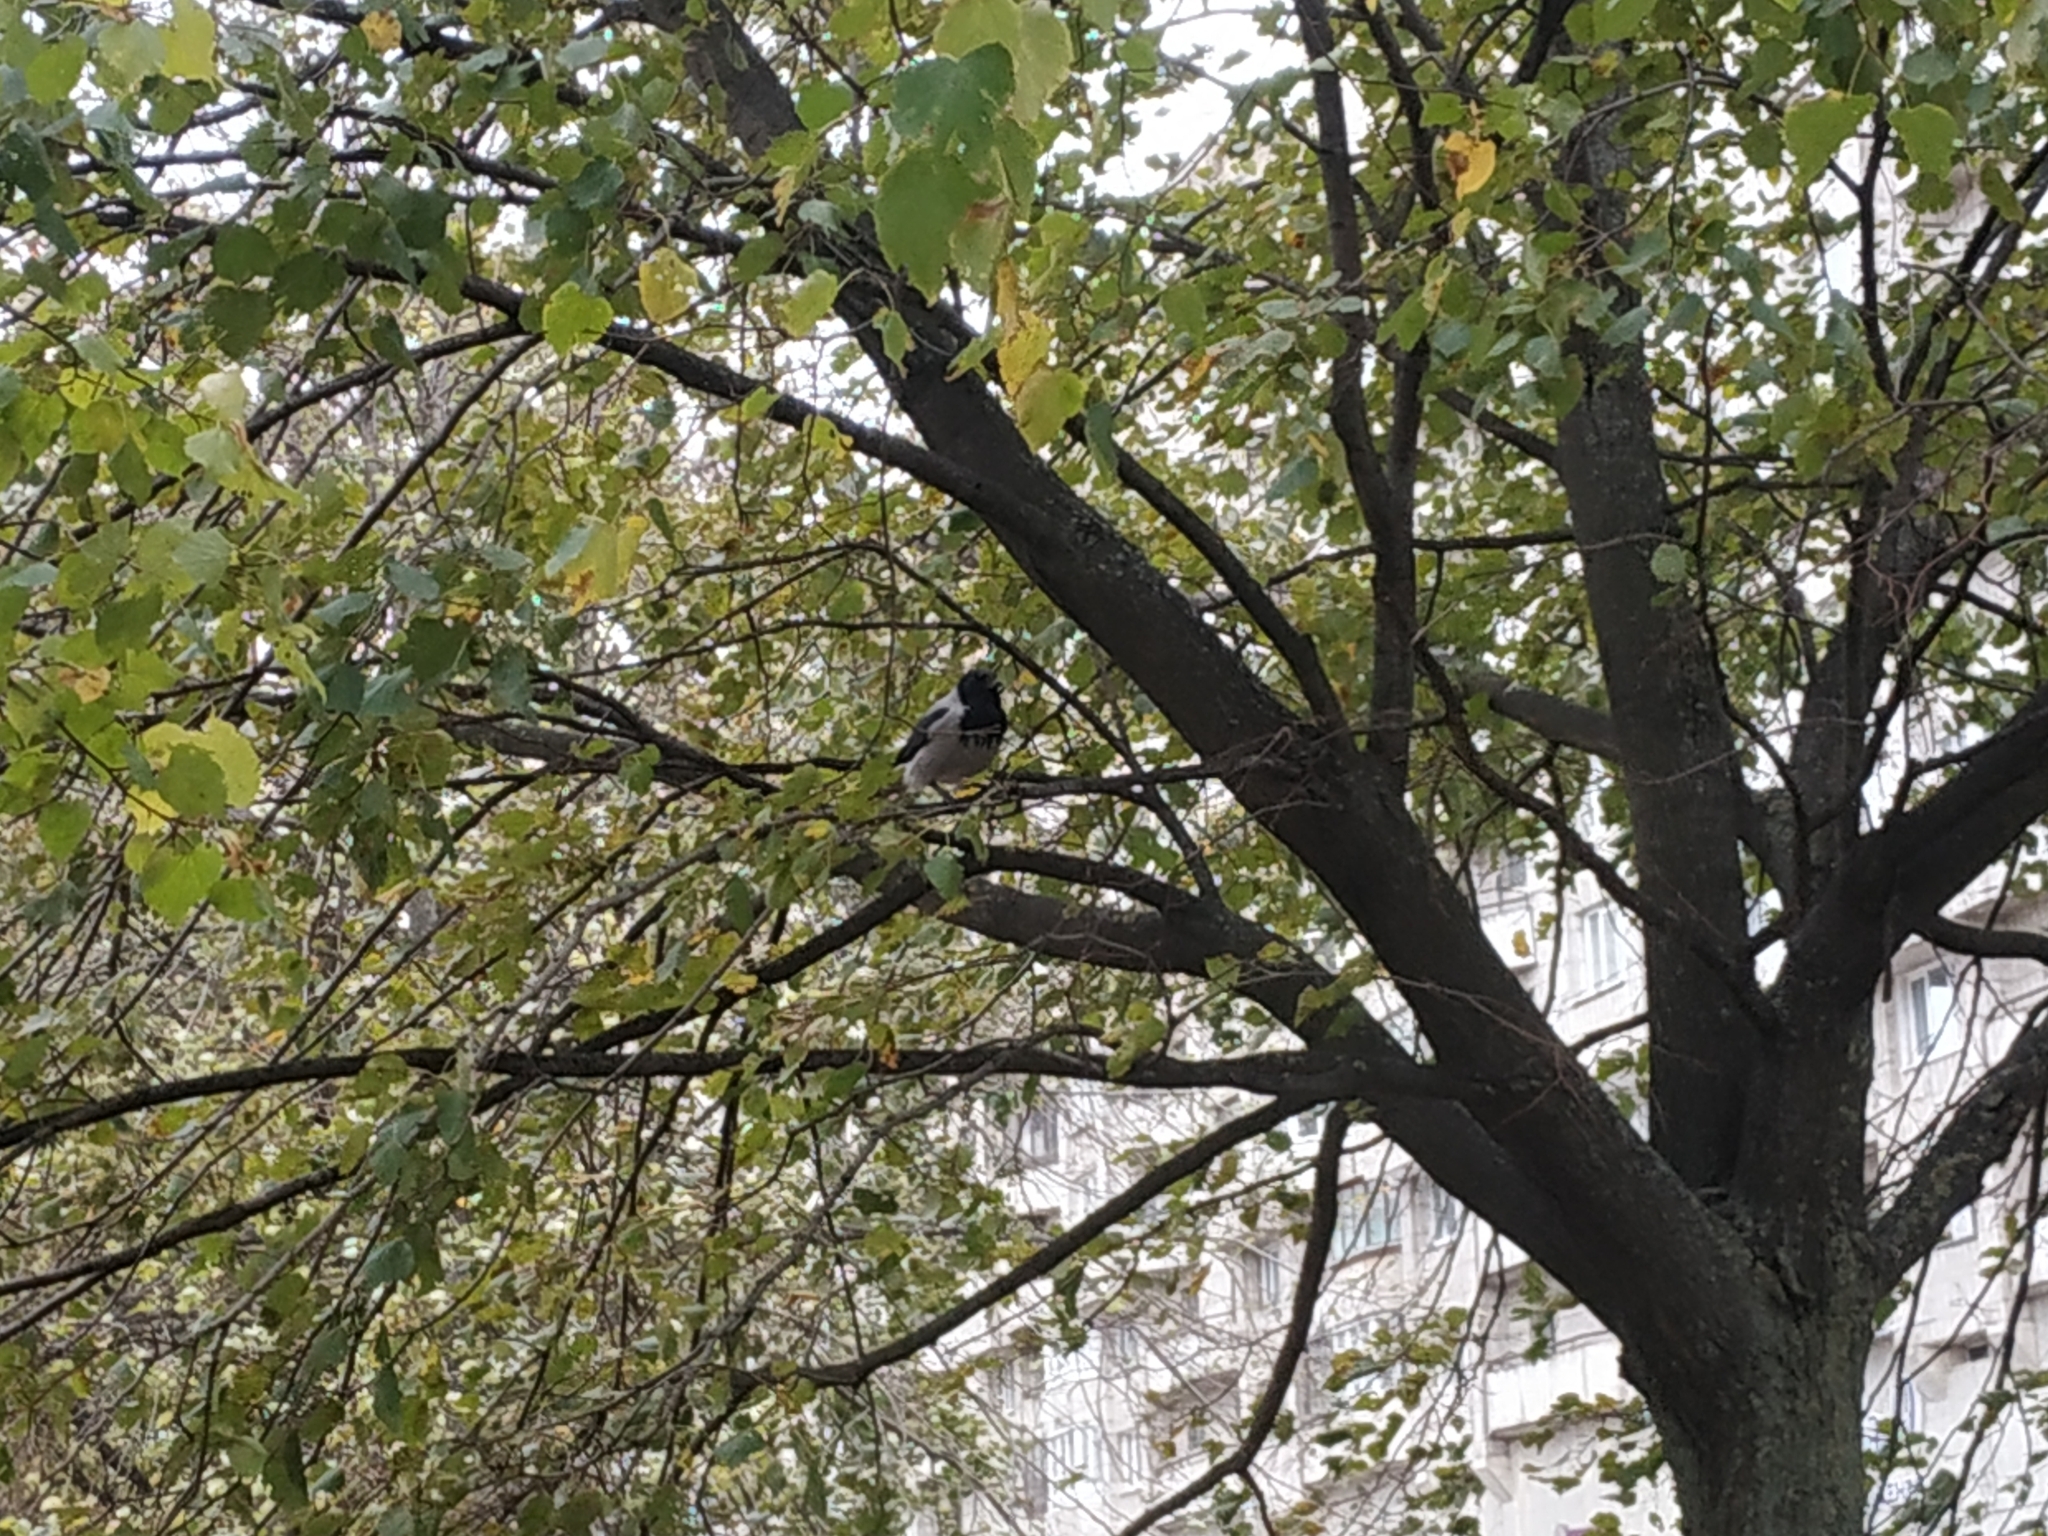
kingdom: Animalia
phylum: Chordata
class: Aves
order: Passeriformes
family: Corvidae
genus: Corvus
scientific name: Corvus cornix
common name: Hooded crow
